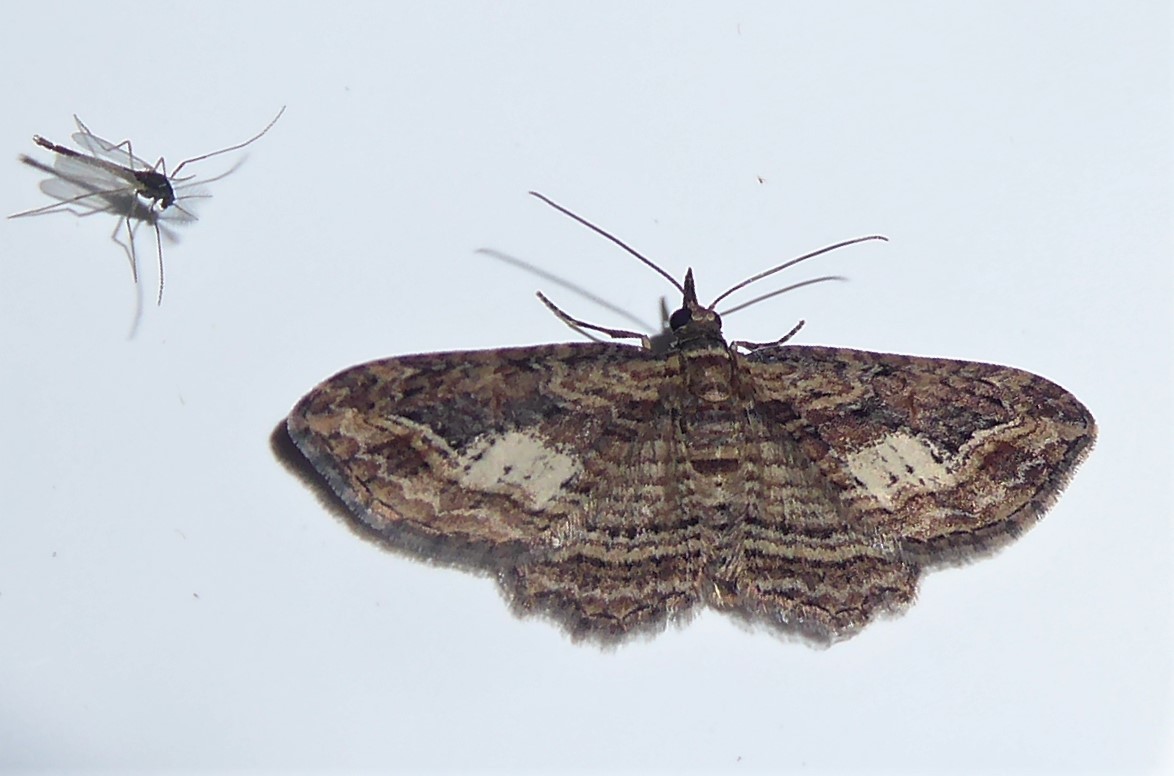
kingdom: Animalia
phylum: Arthropoda
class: Insecta
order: Lepidoptera
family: Geometridae
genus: Chloroclystis
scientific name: Chloroclystis filata
